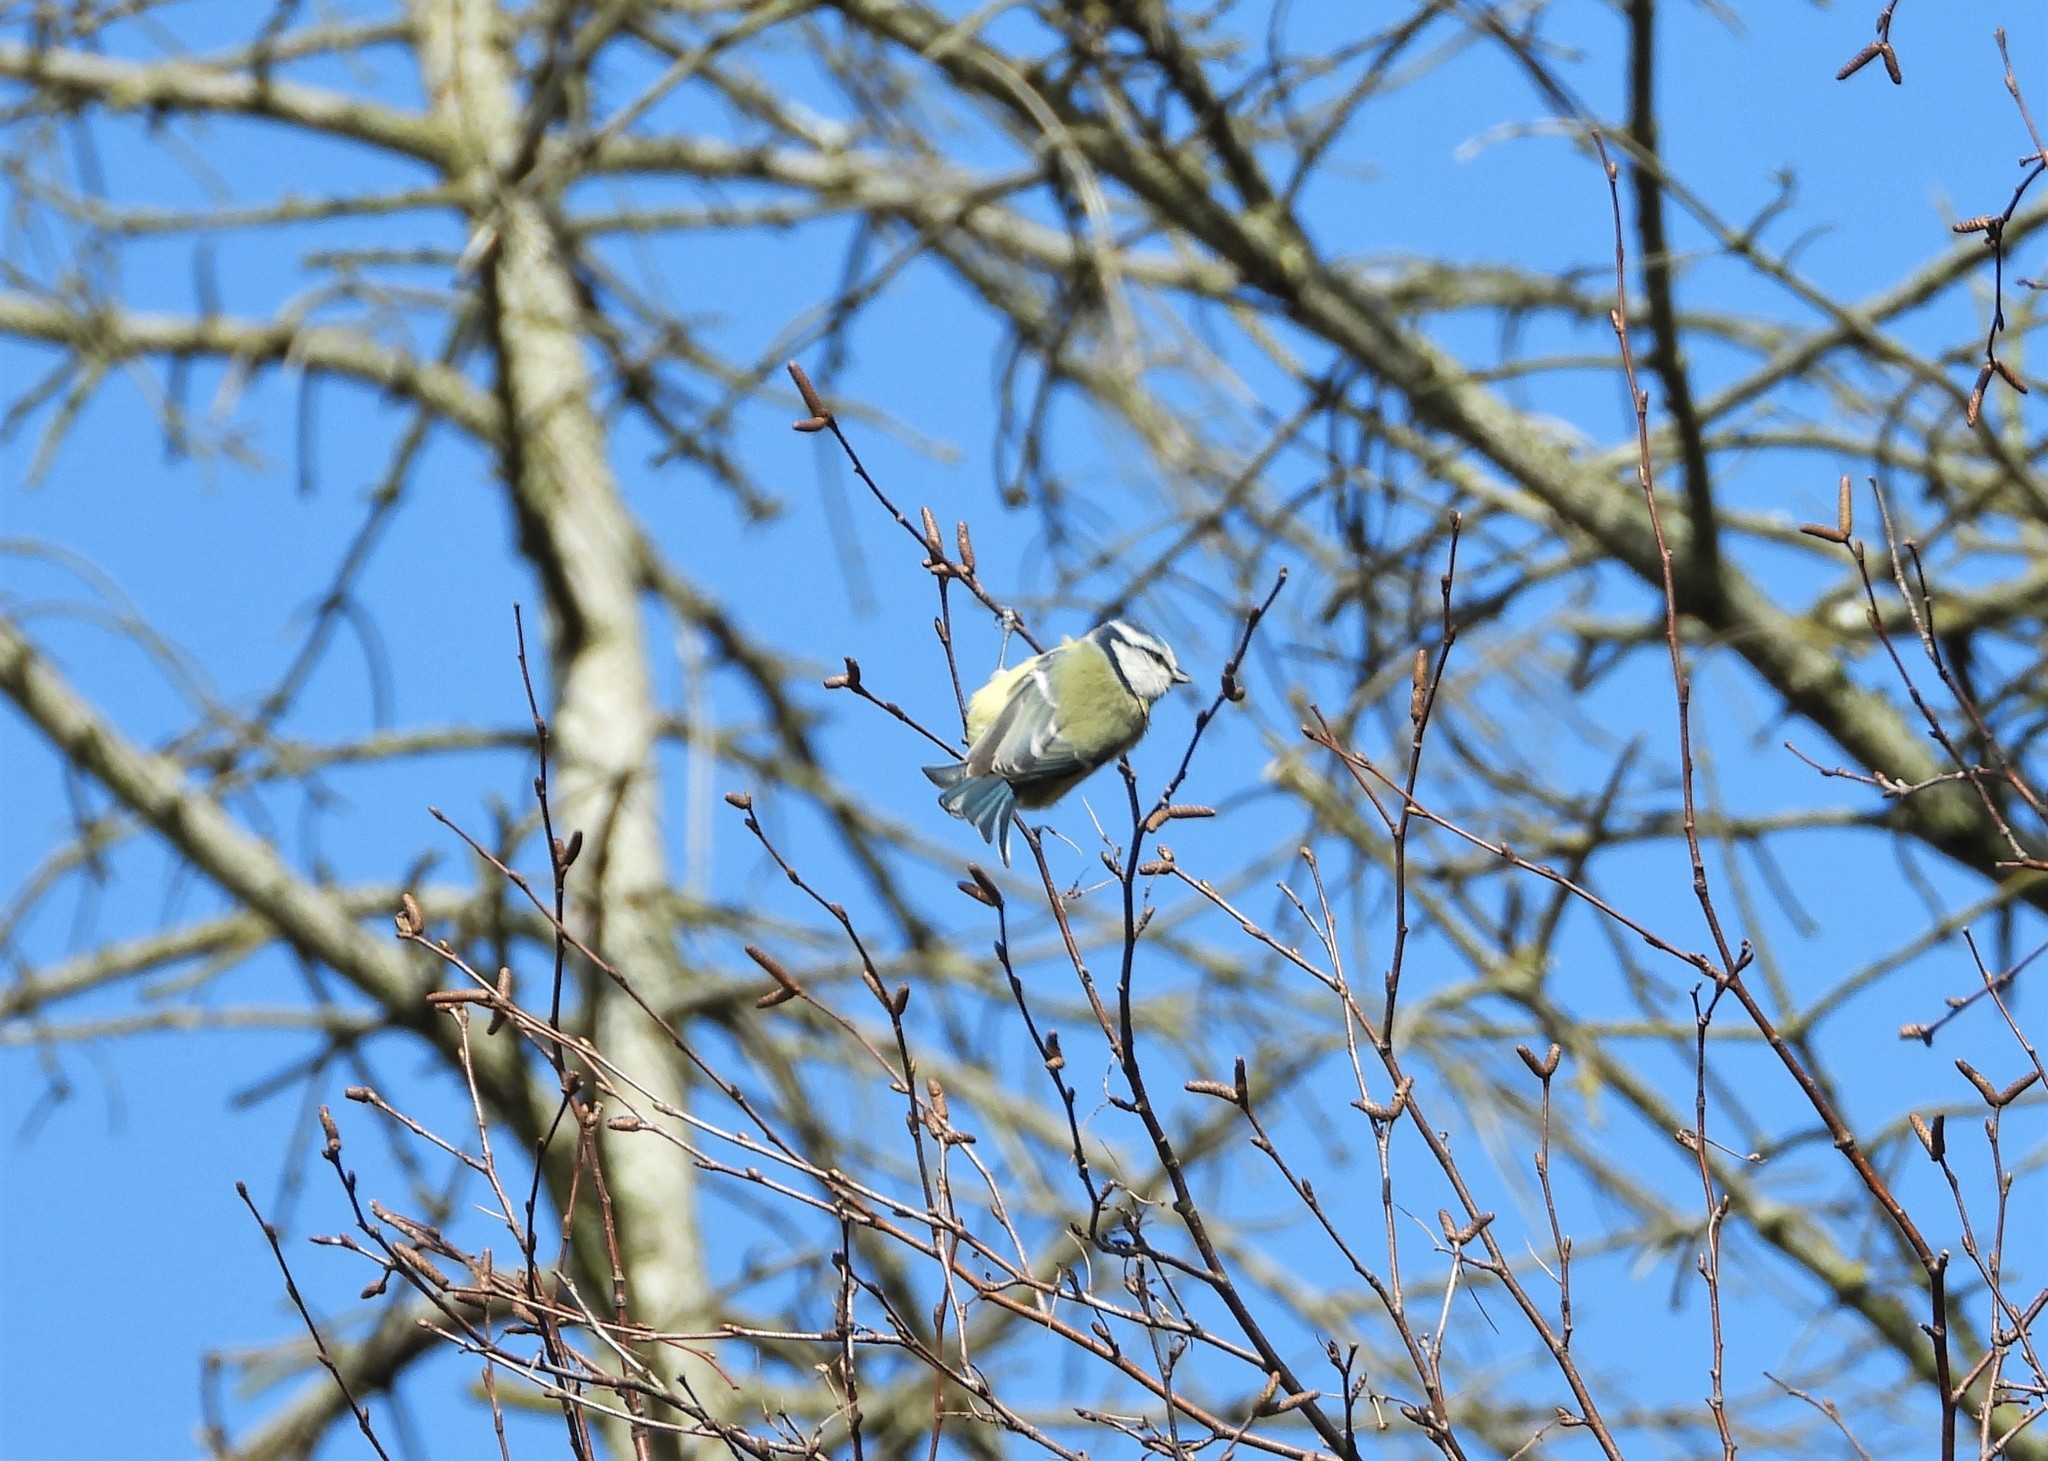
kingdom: Animalia
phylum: Chordata
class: Aves
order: Passeriformes
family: Paridae
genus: Cyanistes
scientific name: Cyanistes caeruleus
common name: Eurasian blue tit
